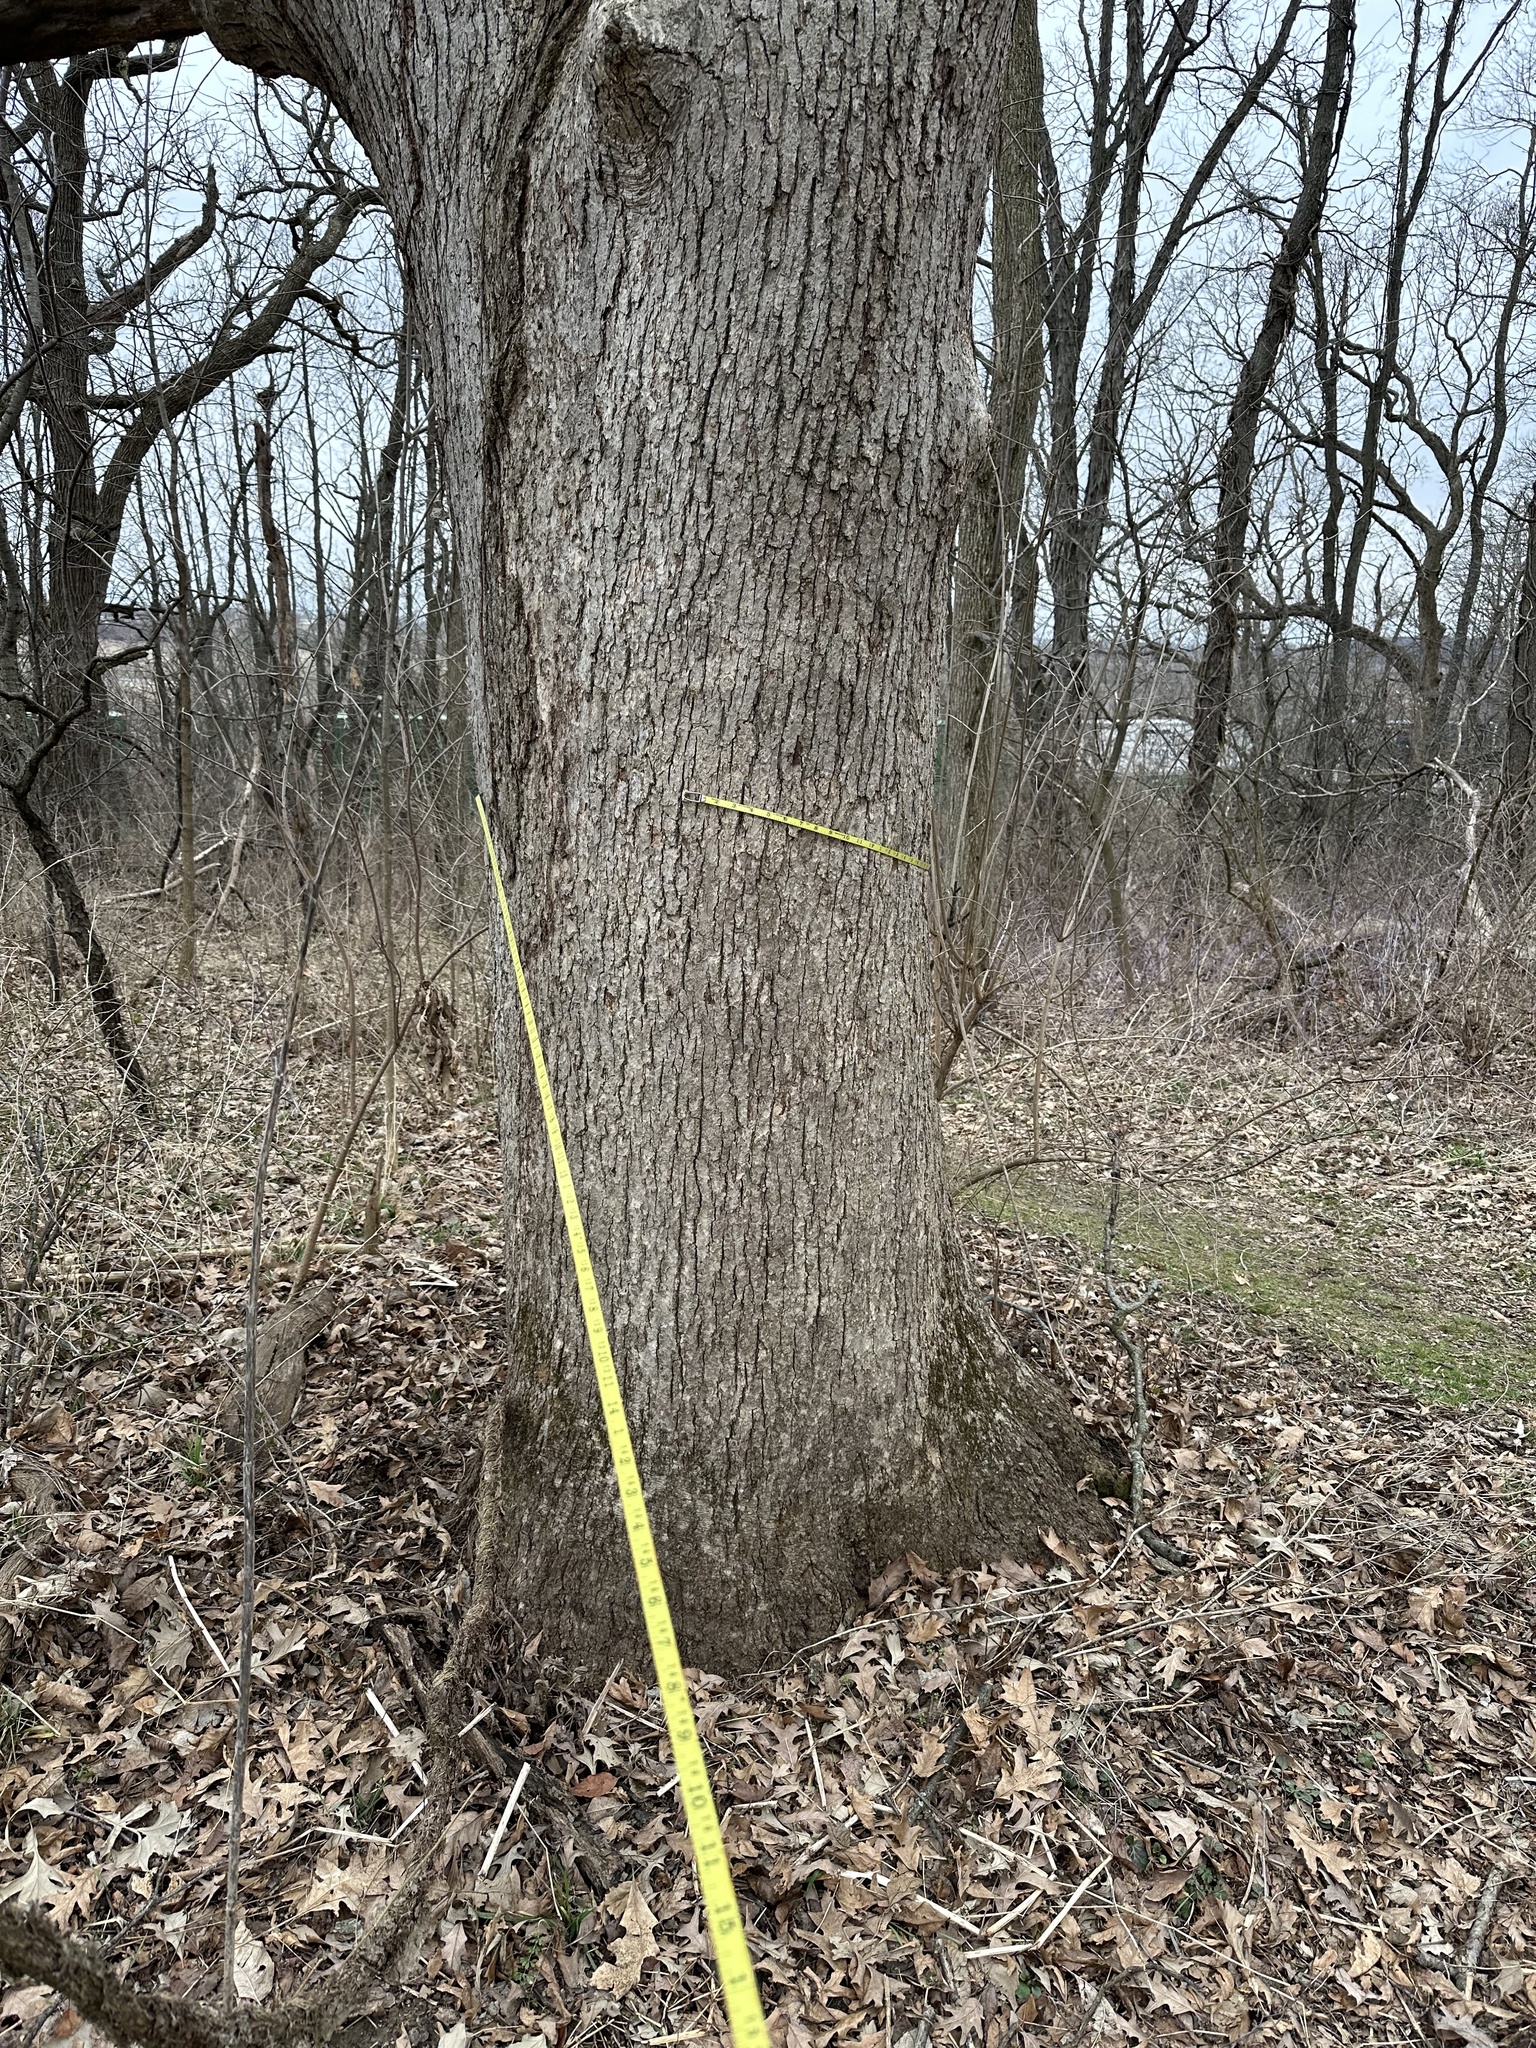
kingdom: Plantae
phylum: Tracheophyta
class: Magnoliopsida
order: Fagales
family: Fagaceae
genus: Quercus
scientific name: Quercus alba
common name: White oak
